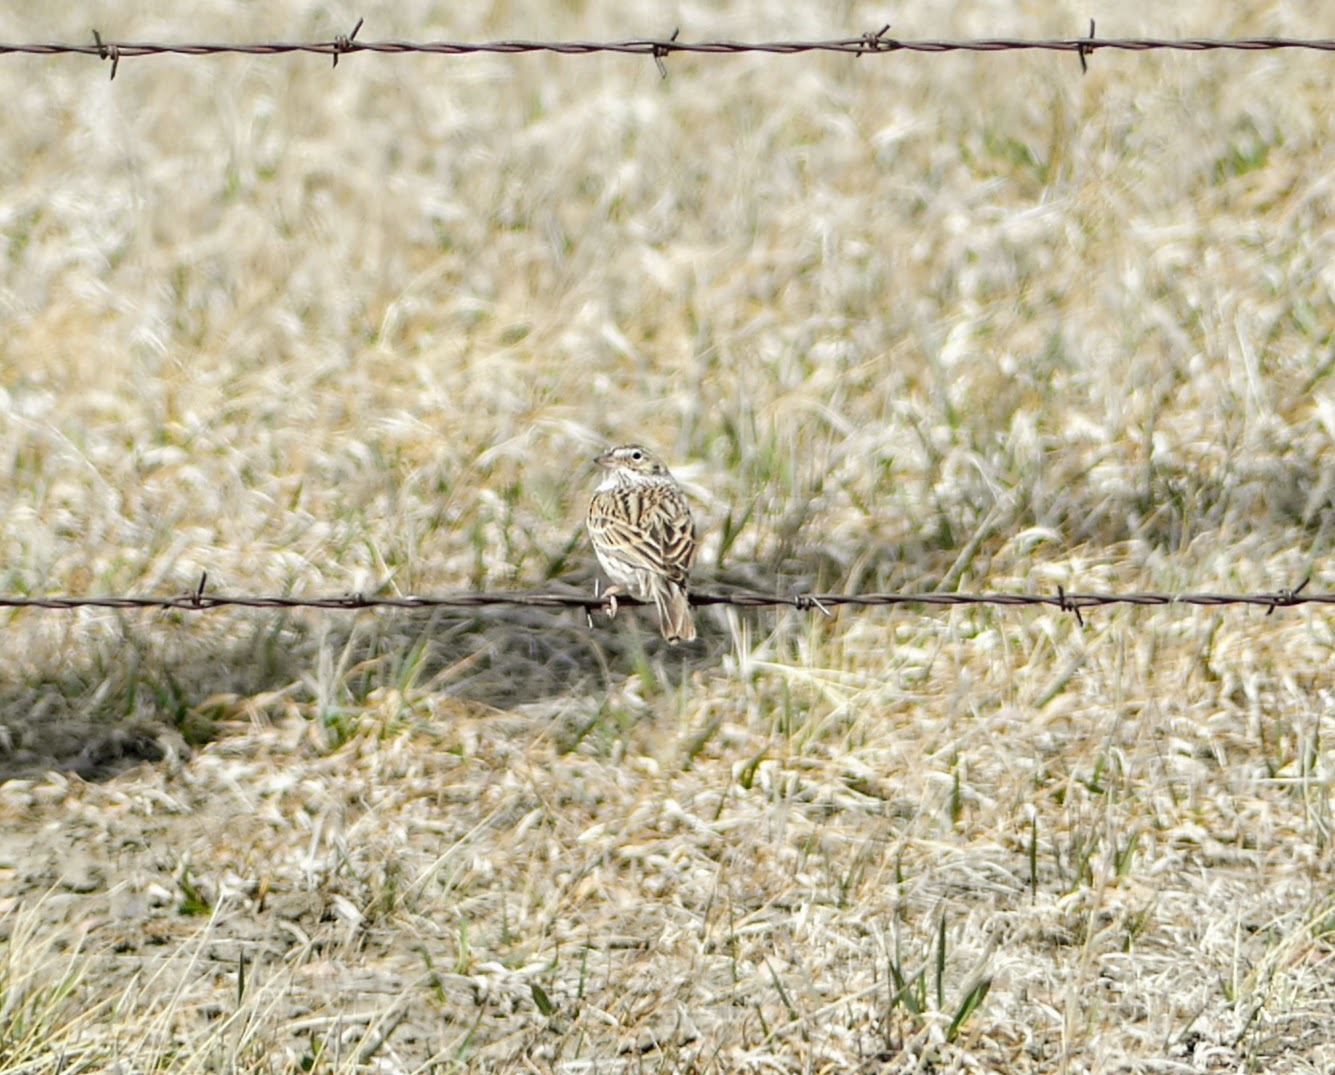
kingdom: Animalia
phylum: Chordata
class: Aves
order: Passeriformes
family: Passerellidae
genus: Pooecetes
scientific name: Pooecetes gramineus
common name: Vesper sparrow
